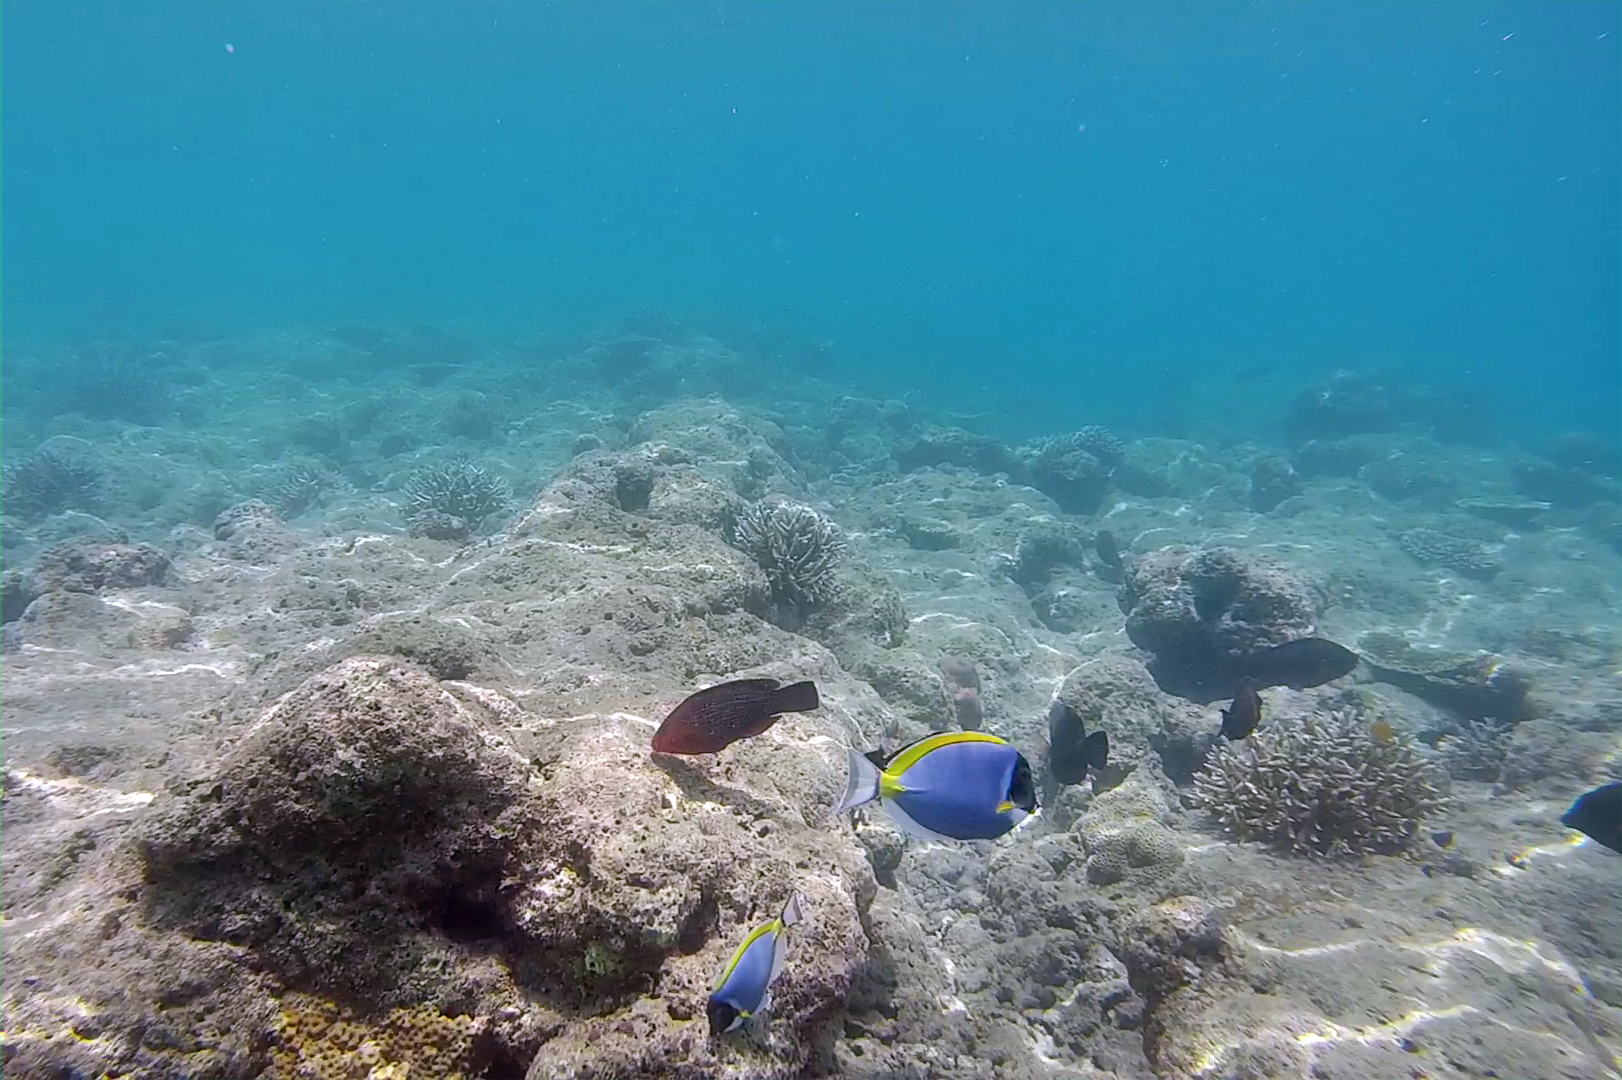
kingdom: Animalia
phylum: Chordata
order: Perciformes
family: Acanthuridae
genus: Acanthurus
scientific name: Acanthurus leucosternon
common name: Blue surgeonfish
